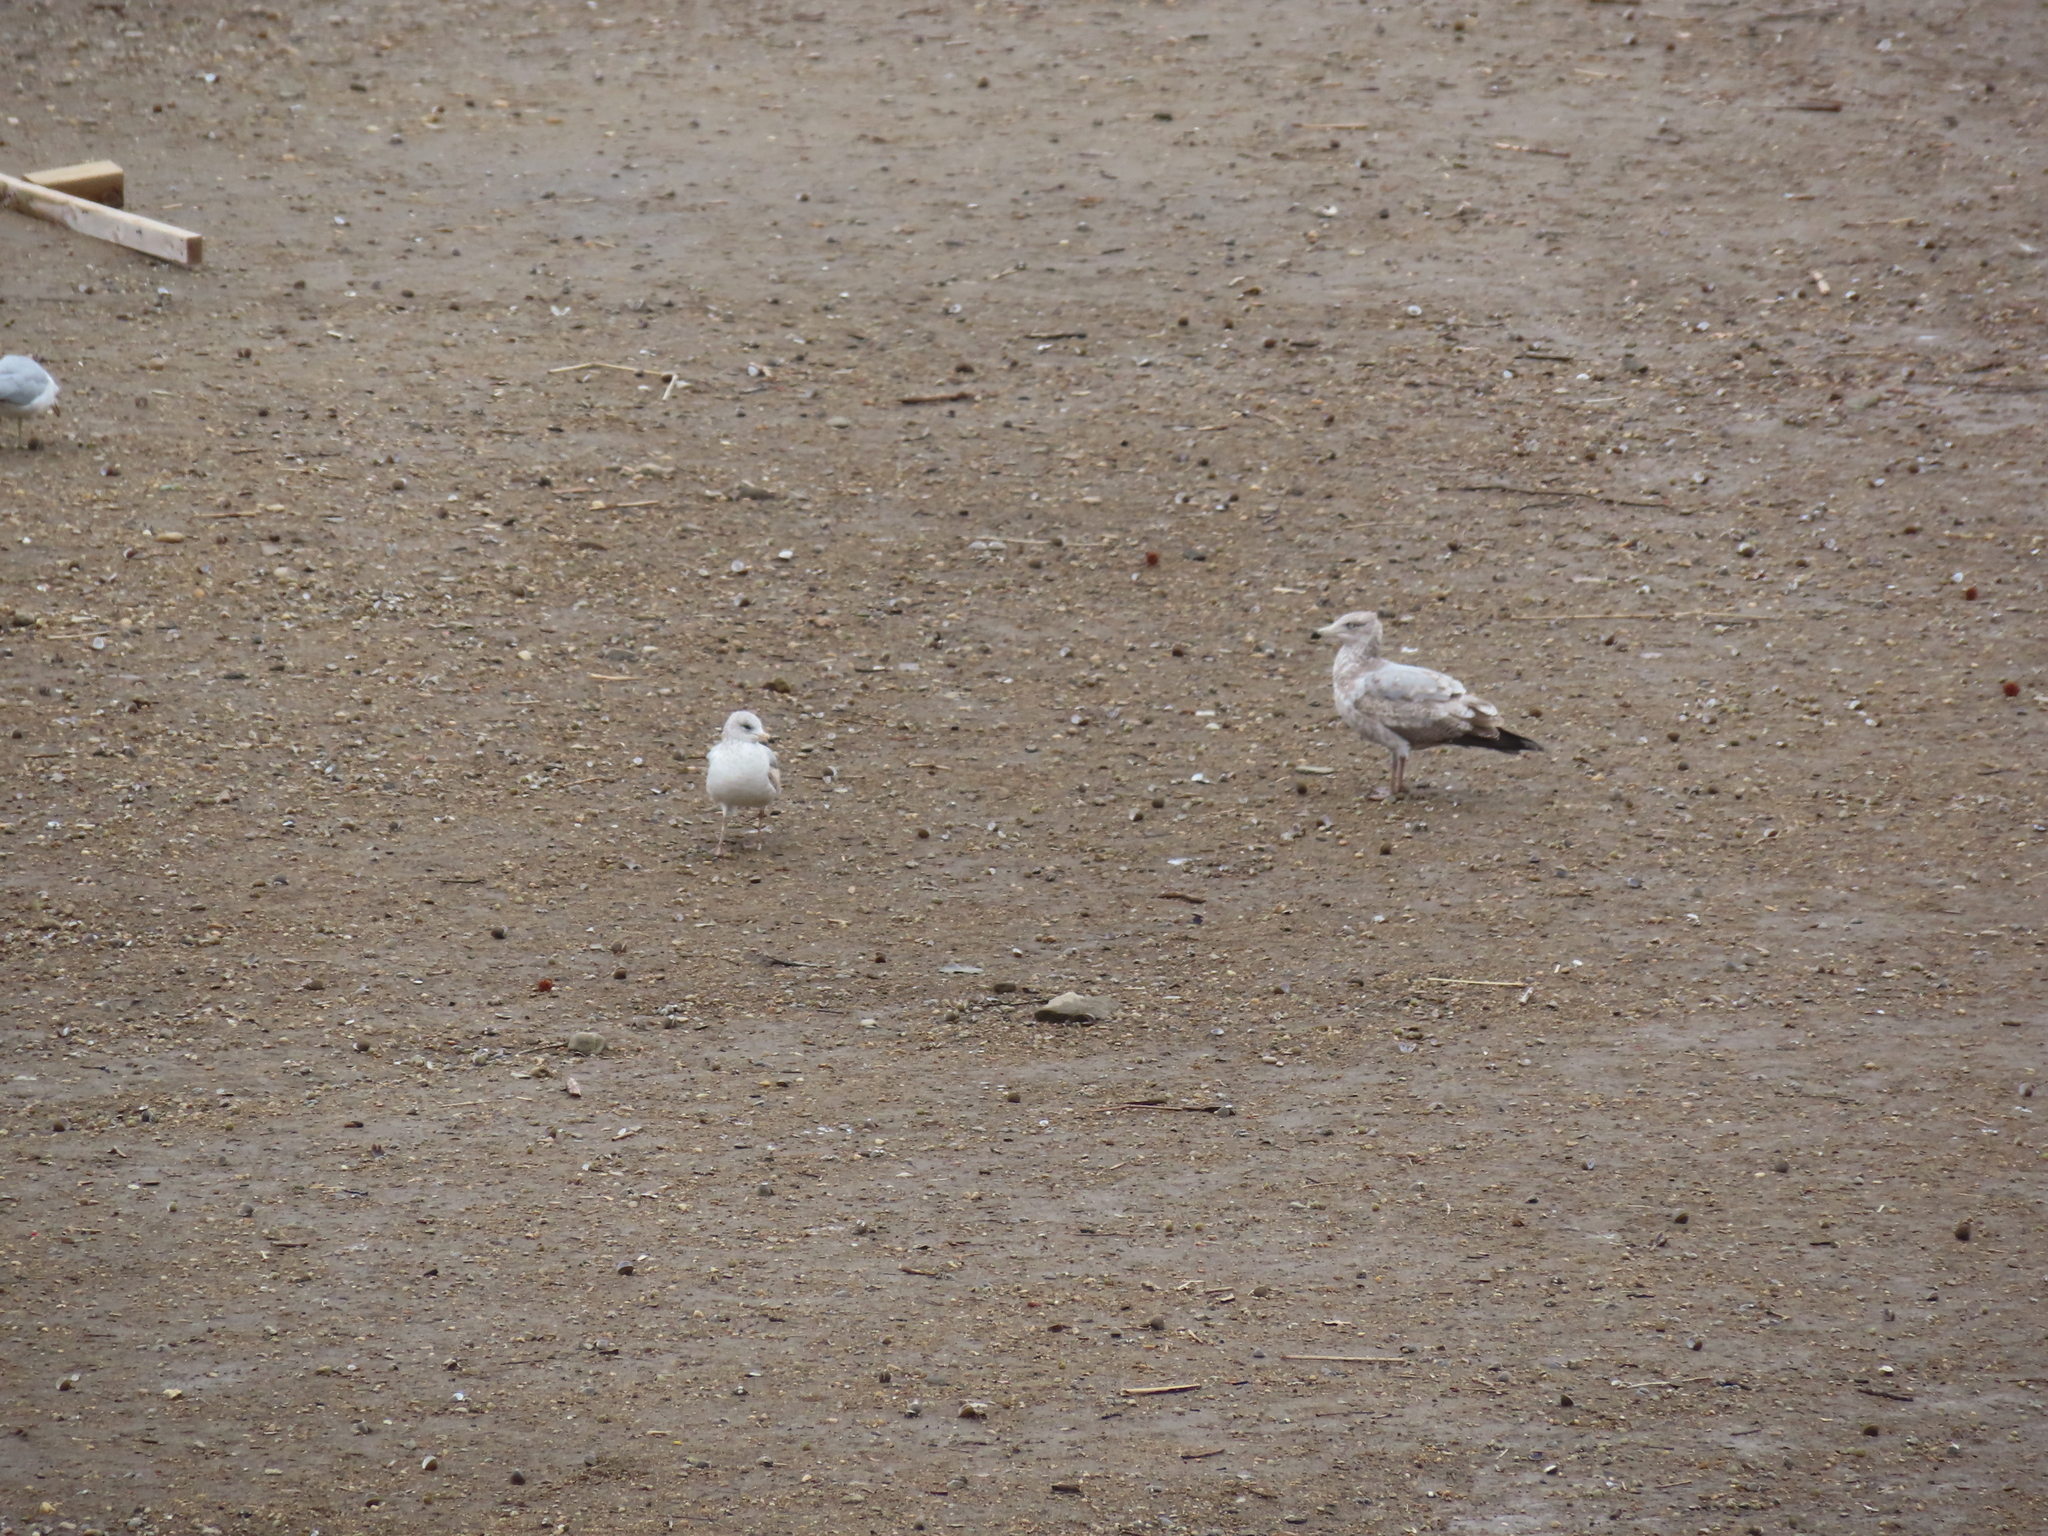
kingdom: Animalia
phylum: Chordata
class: Aves
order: Charadriiformes
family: Laridae
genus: Larus
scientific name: Larus argentatus
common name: Herring gull
